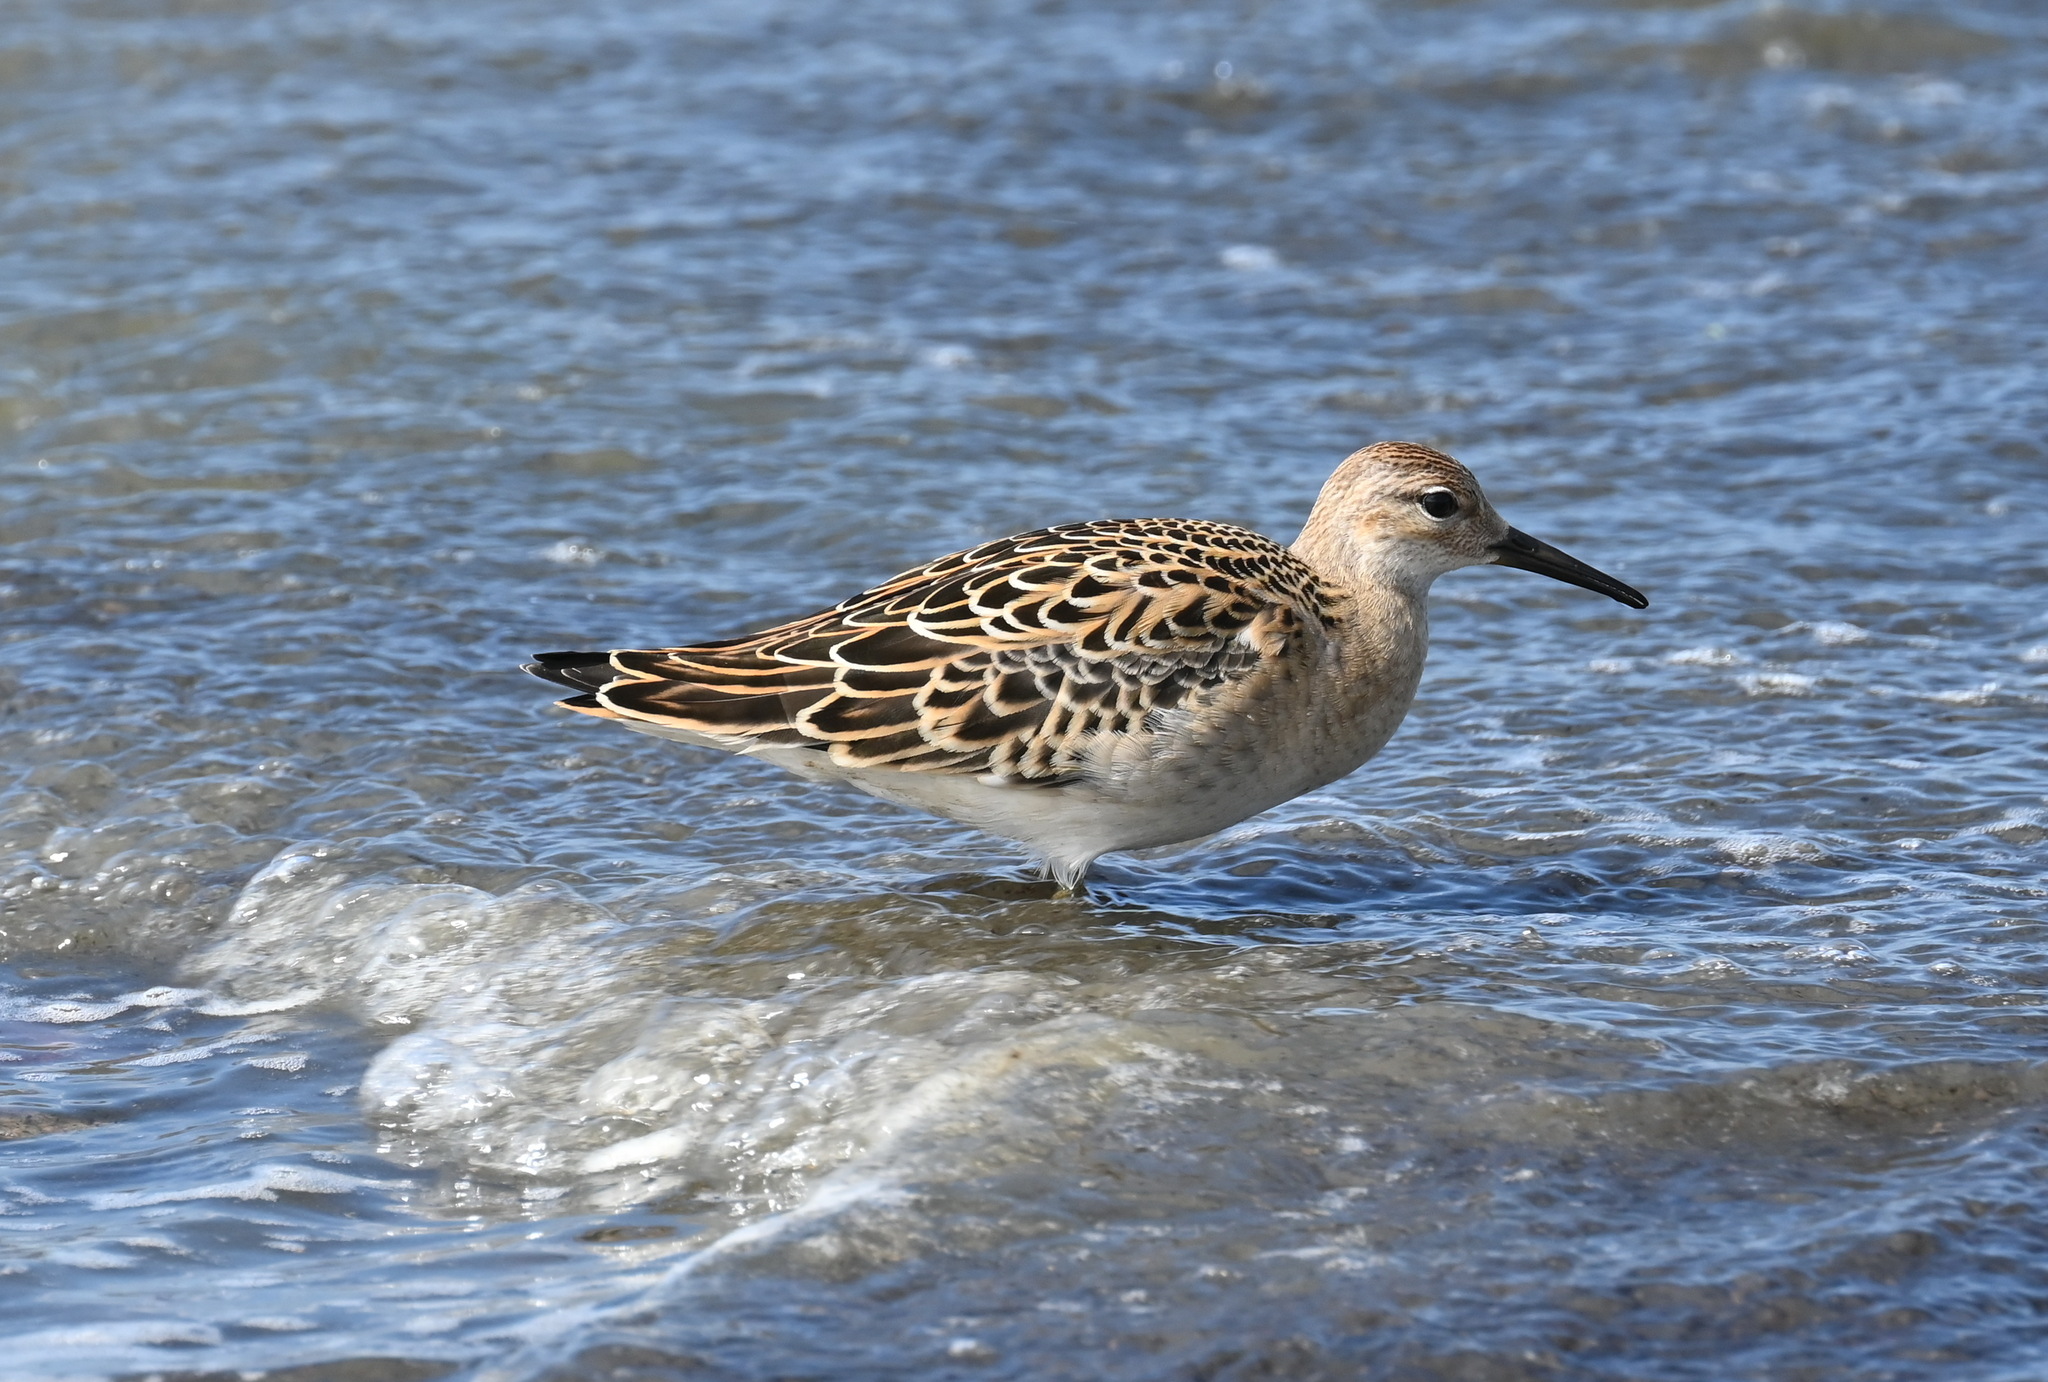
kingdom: Animalia
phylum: Chordata
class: Aves
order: Charadriiformes
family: Scolopacidae
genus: Calidris
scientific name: Calidris pugnax
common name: Ruff
